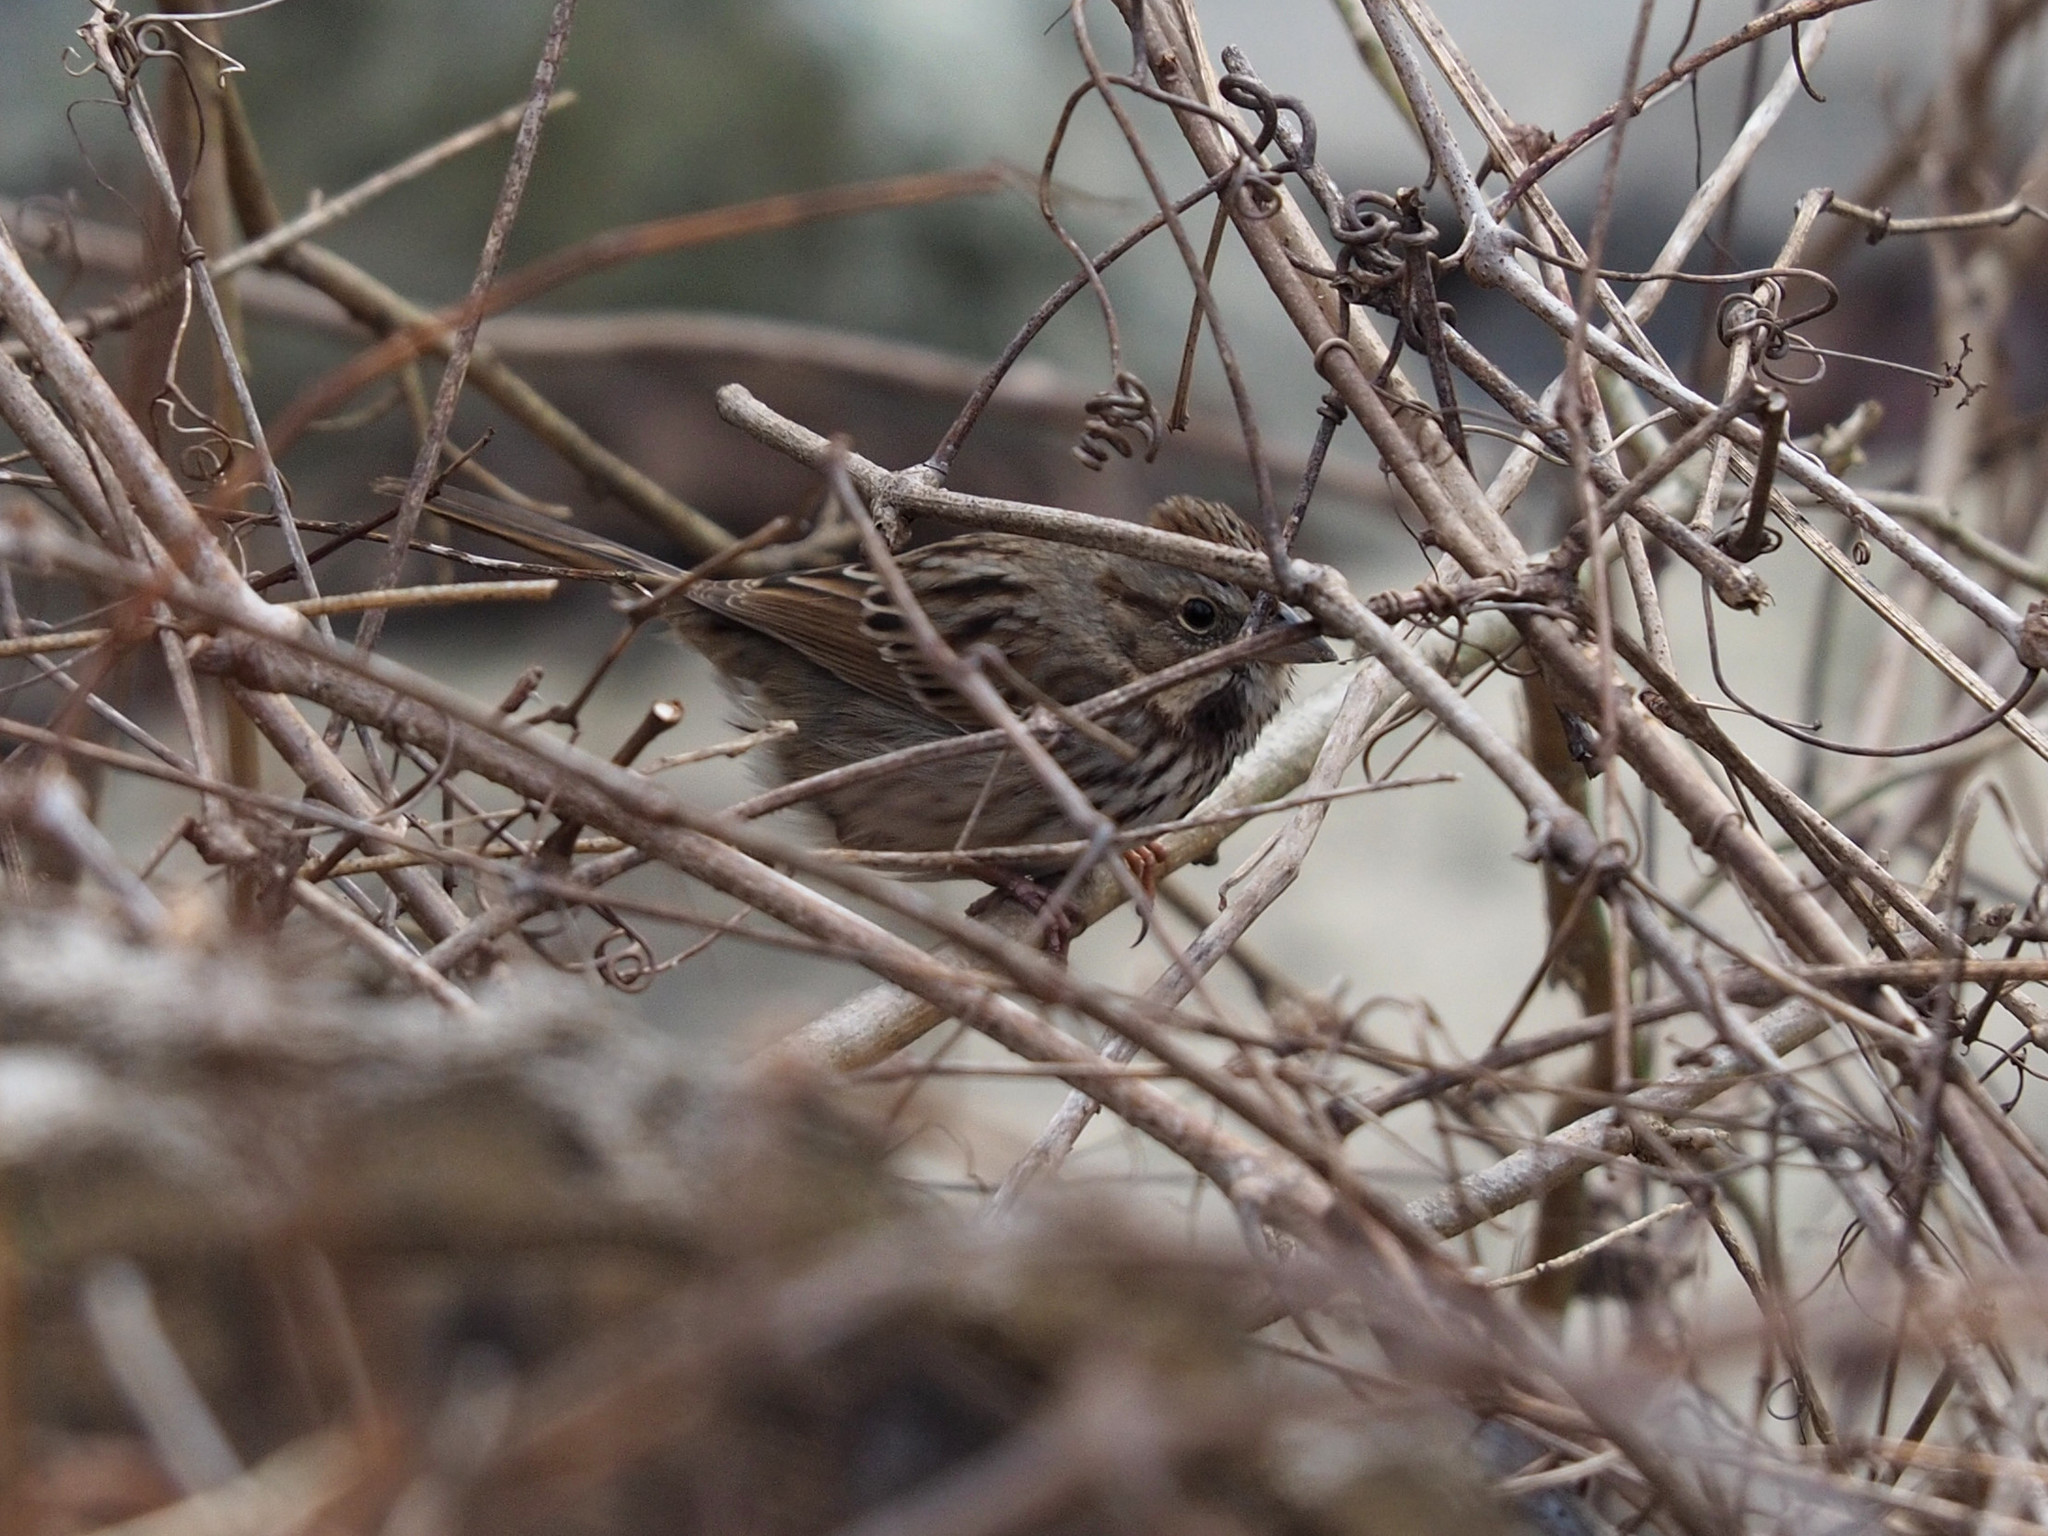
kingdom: Animalia
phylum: Chordata
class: Aves
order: Passeriformes
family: Passerellidae
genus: Melospiza
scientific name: Melospiza melodia
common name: Song sparrow
